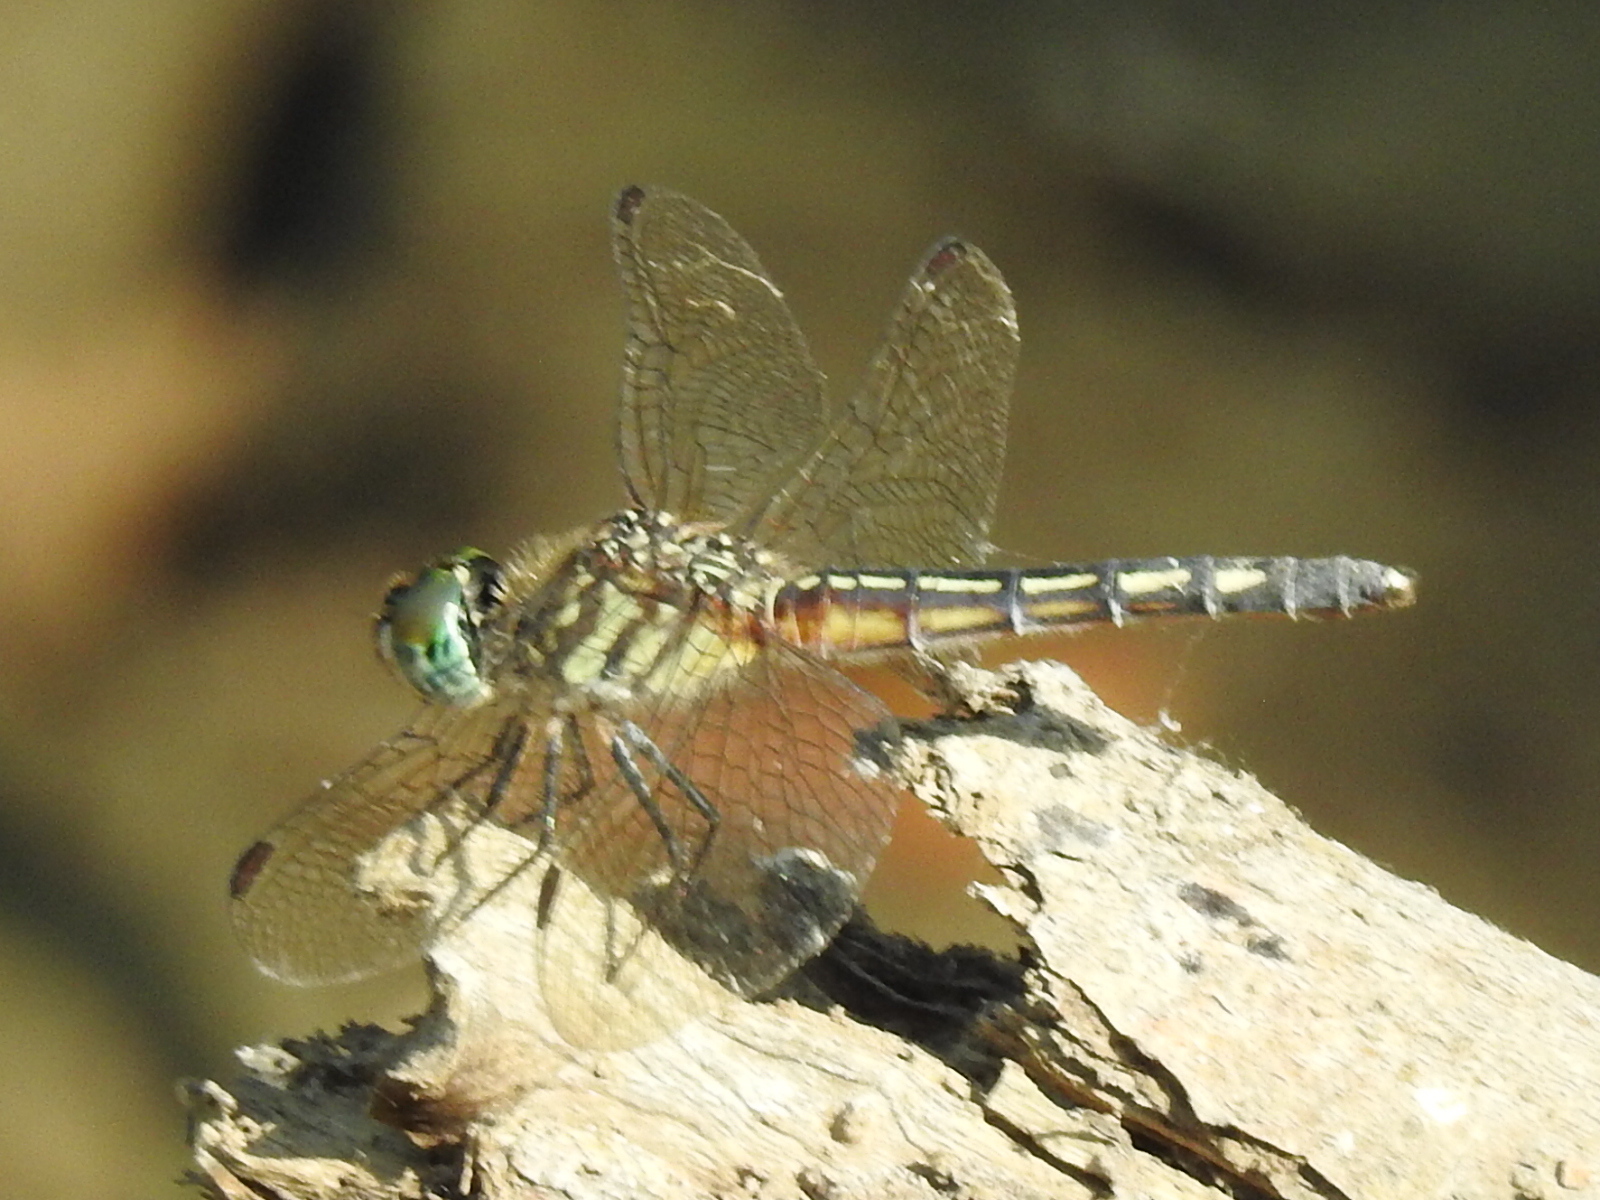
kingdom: Animalia
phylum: Arthropoda
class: Insecta
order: Odonata
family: Libellulidae
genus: Pachydiplax
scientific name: Pachydiplax longipennis
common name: Blue dasher
